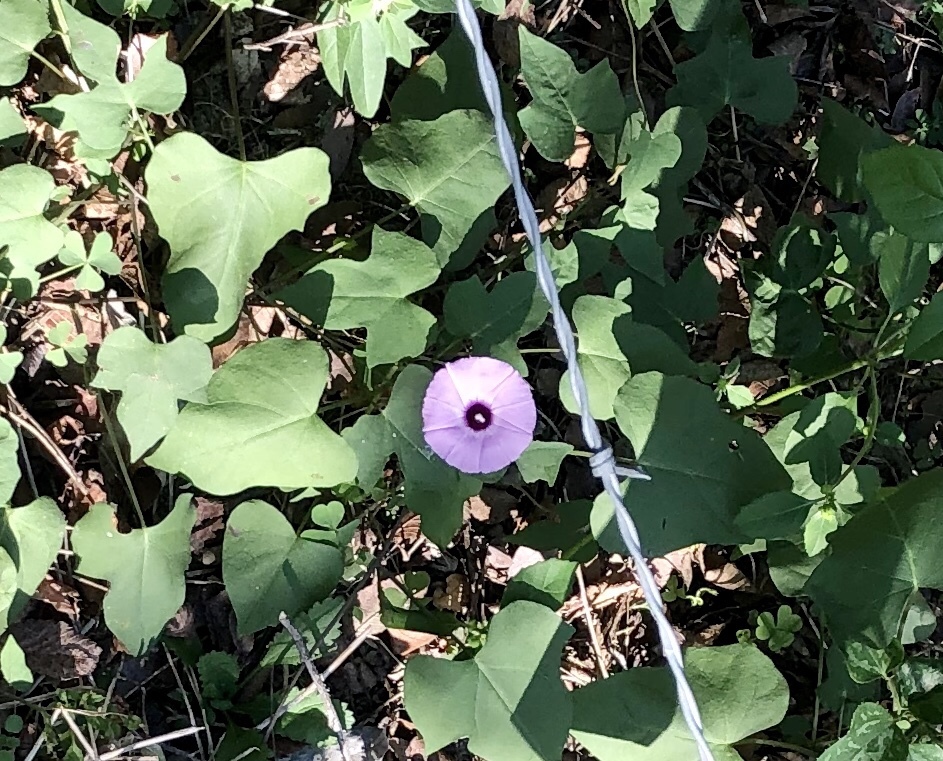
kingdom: Plantae
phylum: Tracheophyta
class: Magnoliopsida
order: Solanales
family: Convolvulaceae
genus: Ipomoea
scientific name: Ipomoea cordatotriloba
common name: Cotton morning glory
